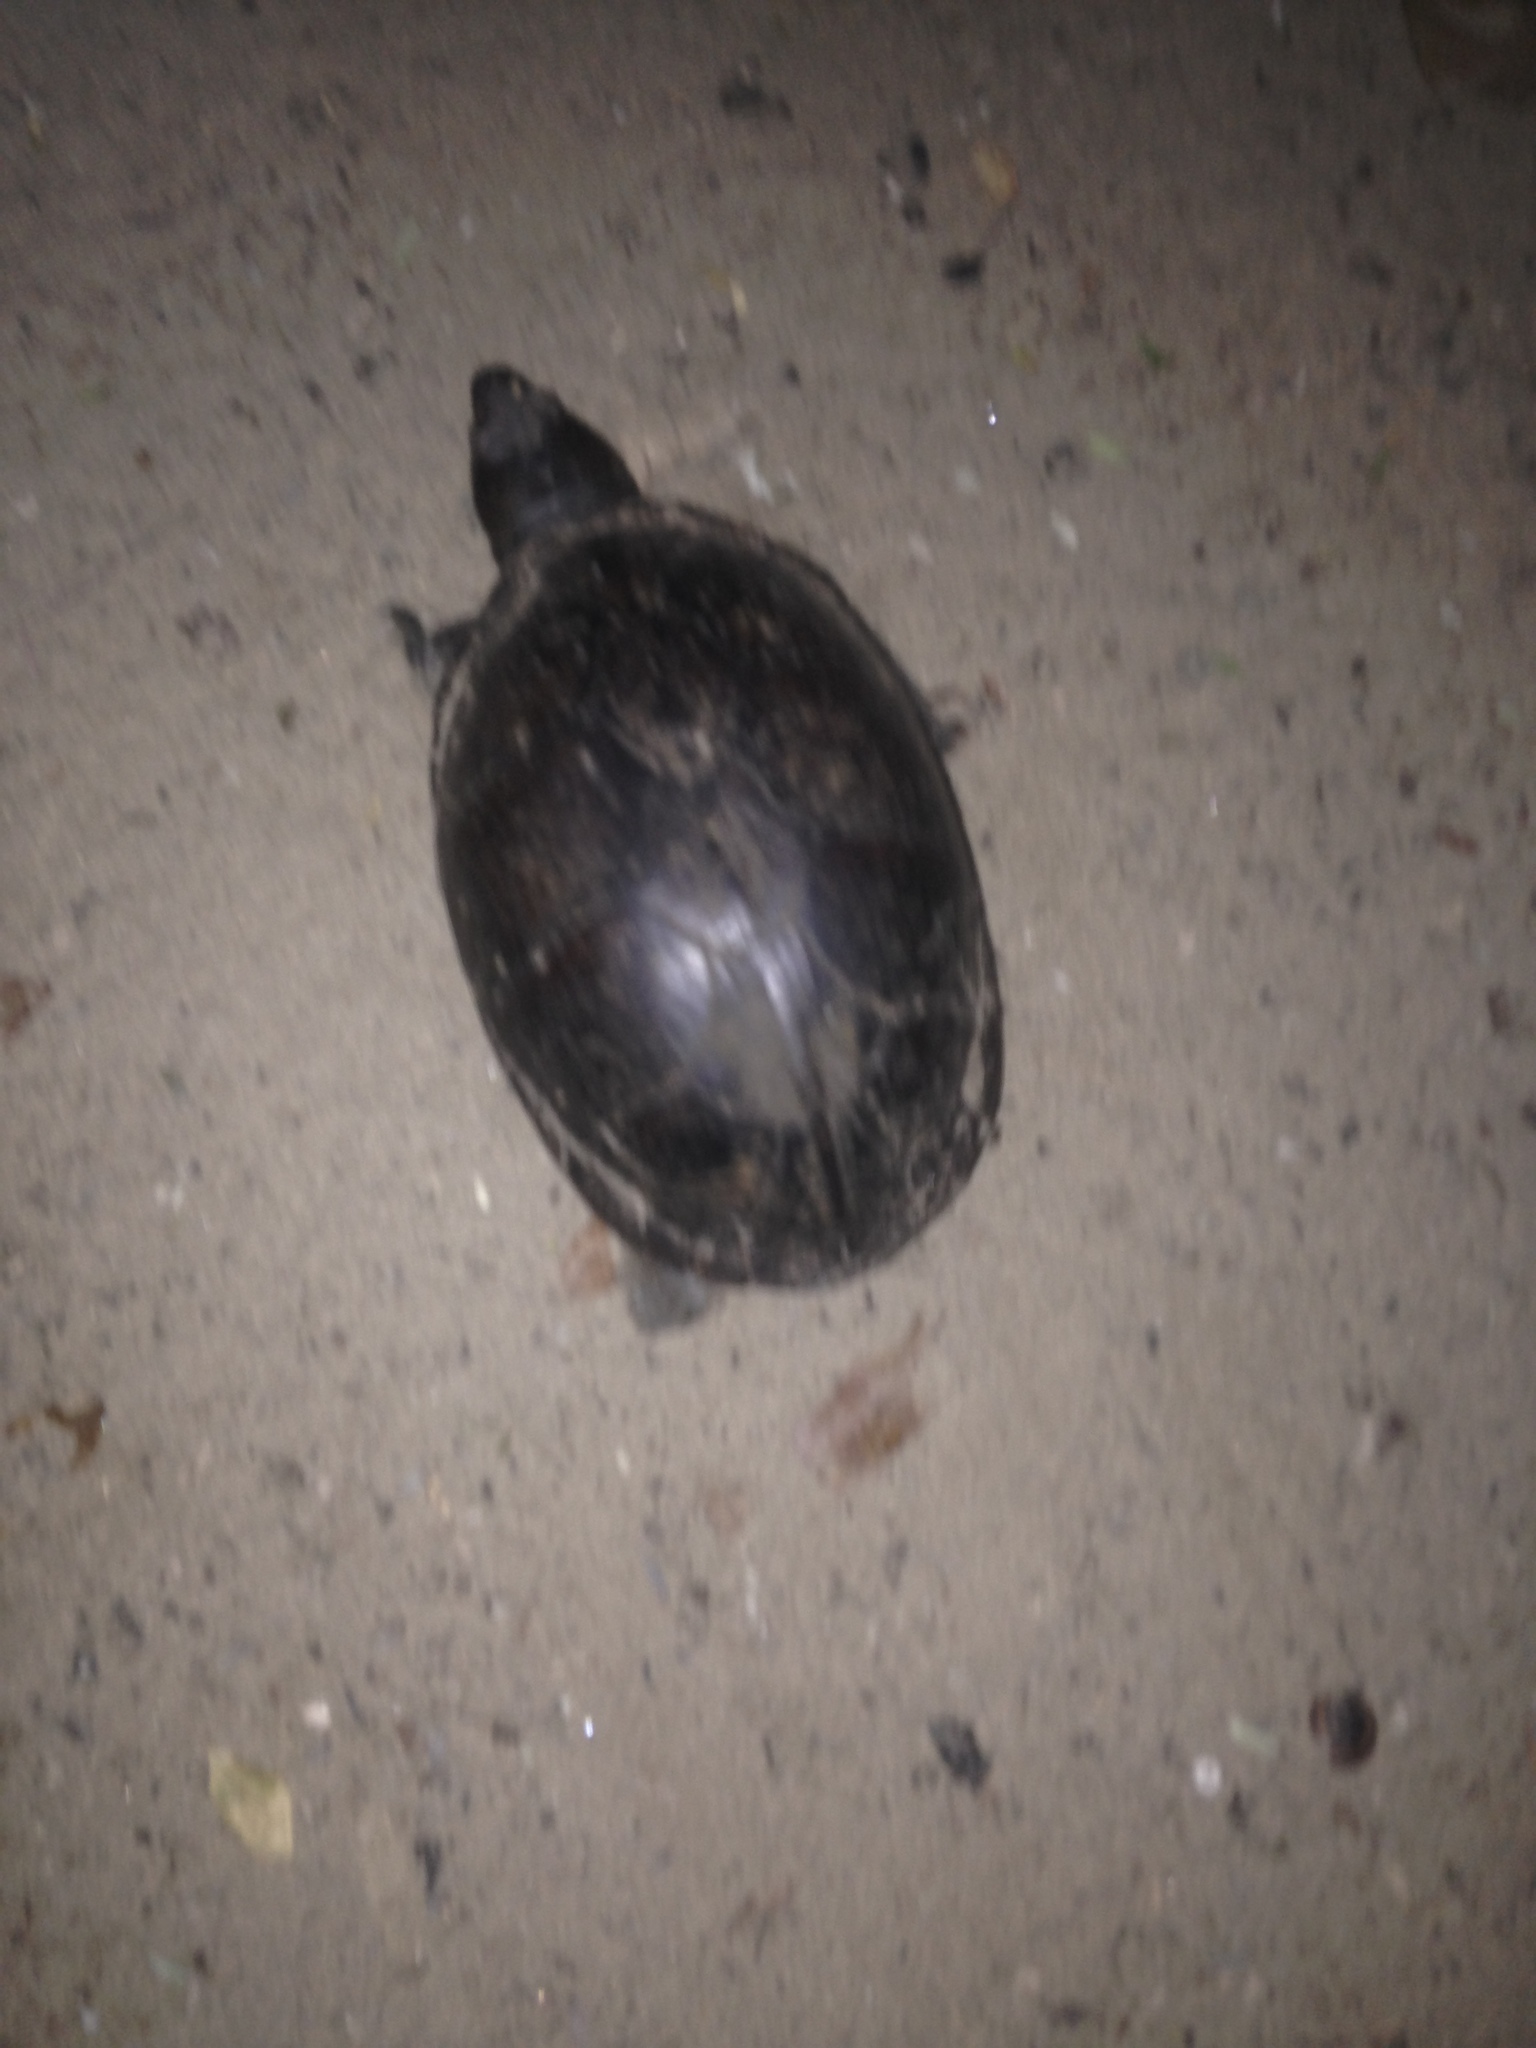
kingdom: Animalia
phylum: Chordata
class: Testudines
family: Kinosternidae
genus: Kinosternon
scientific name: Kinosternon herrerai
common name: Herrera's mud turtle
